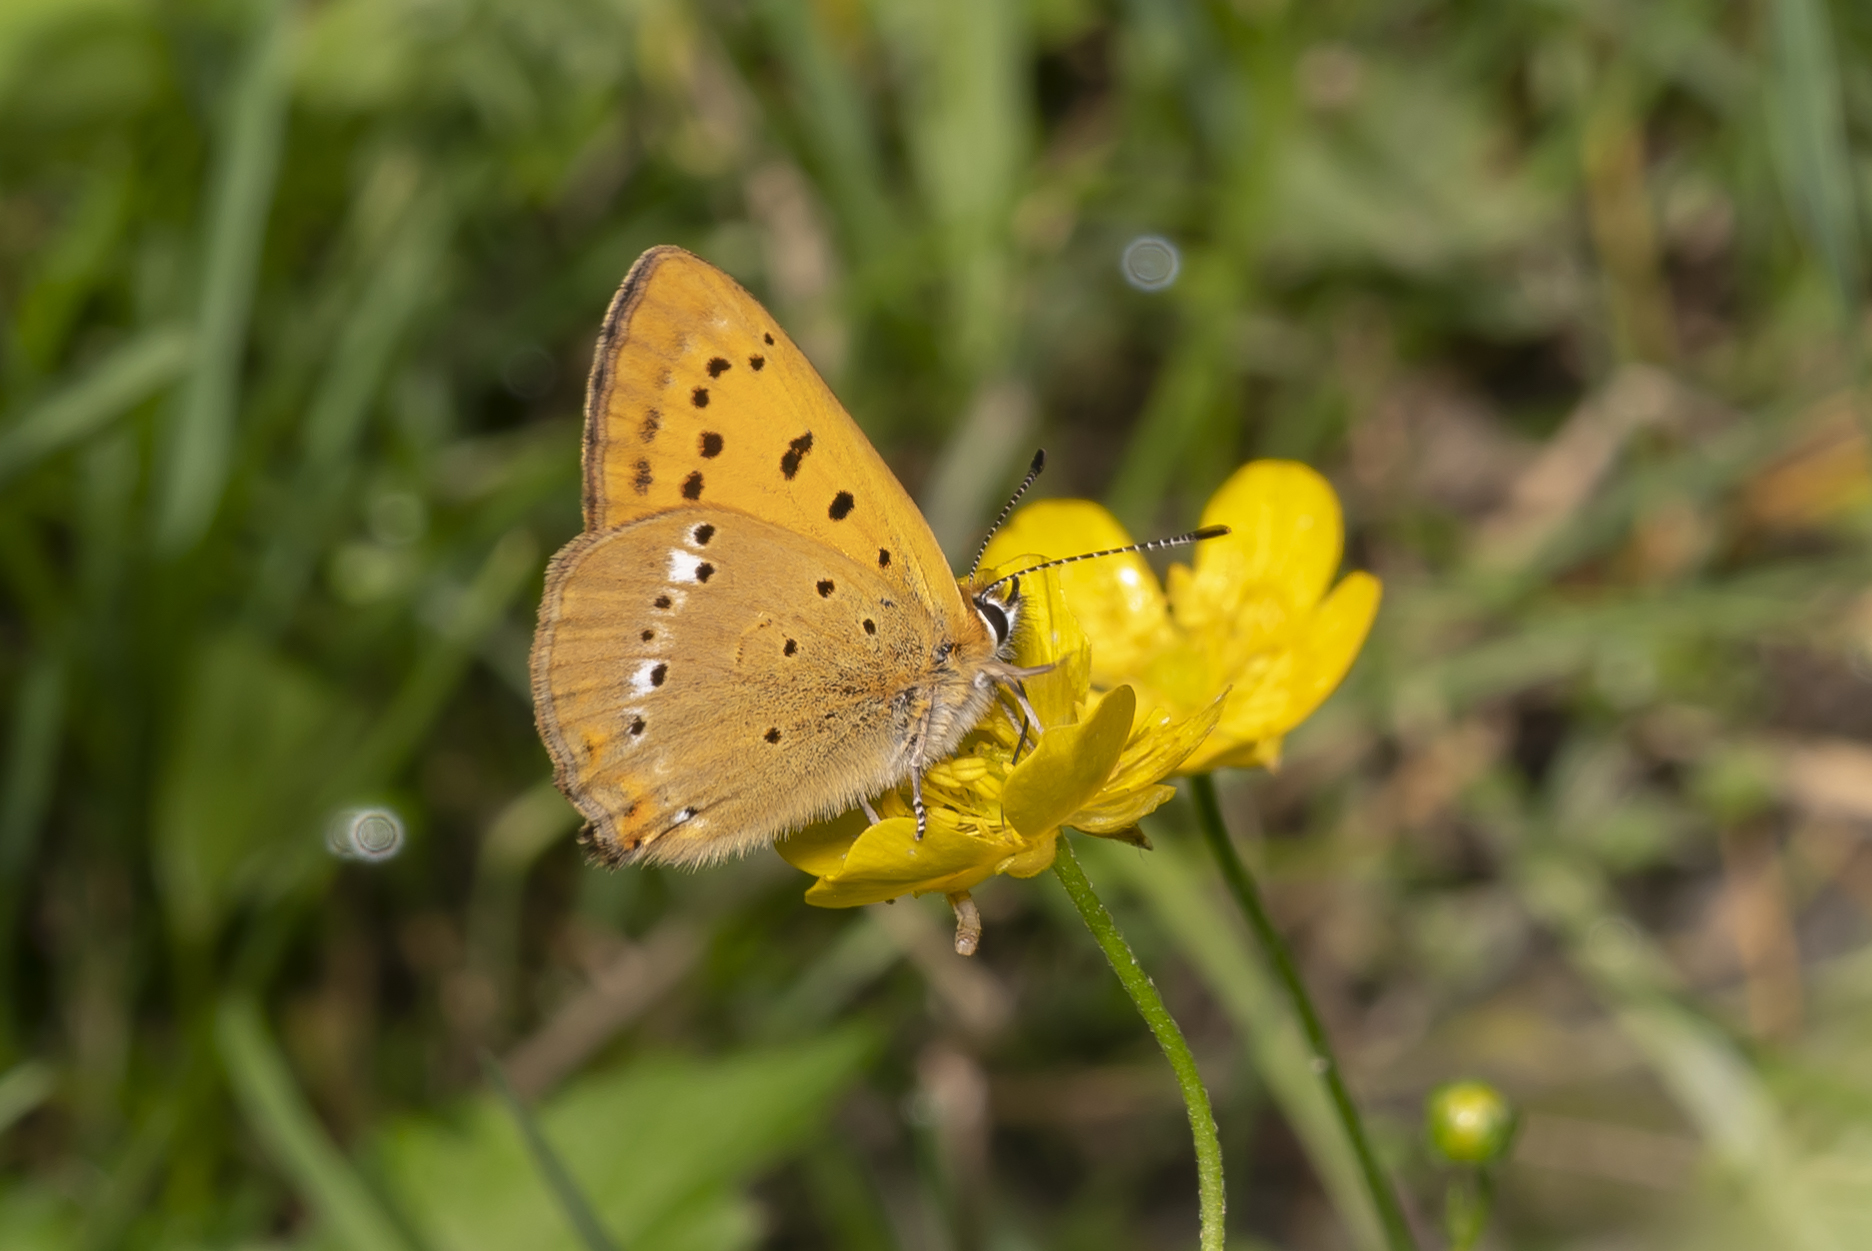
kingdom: Animalia
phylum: Arthropoda
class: Insecta
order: Lepidoptera
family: Lycaenidae
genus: Lycaena
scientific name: Lycaena virgaureae
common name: Scarce copper
